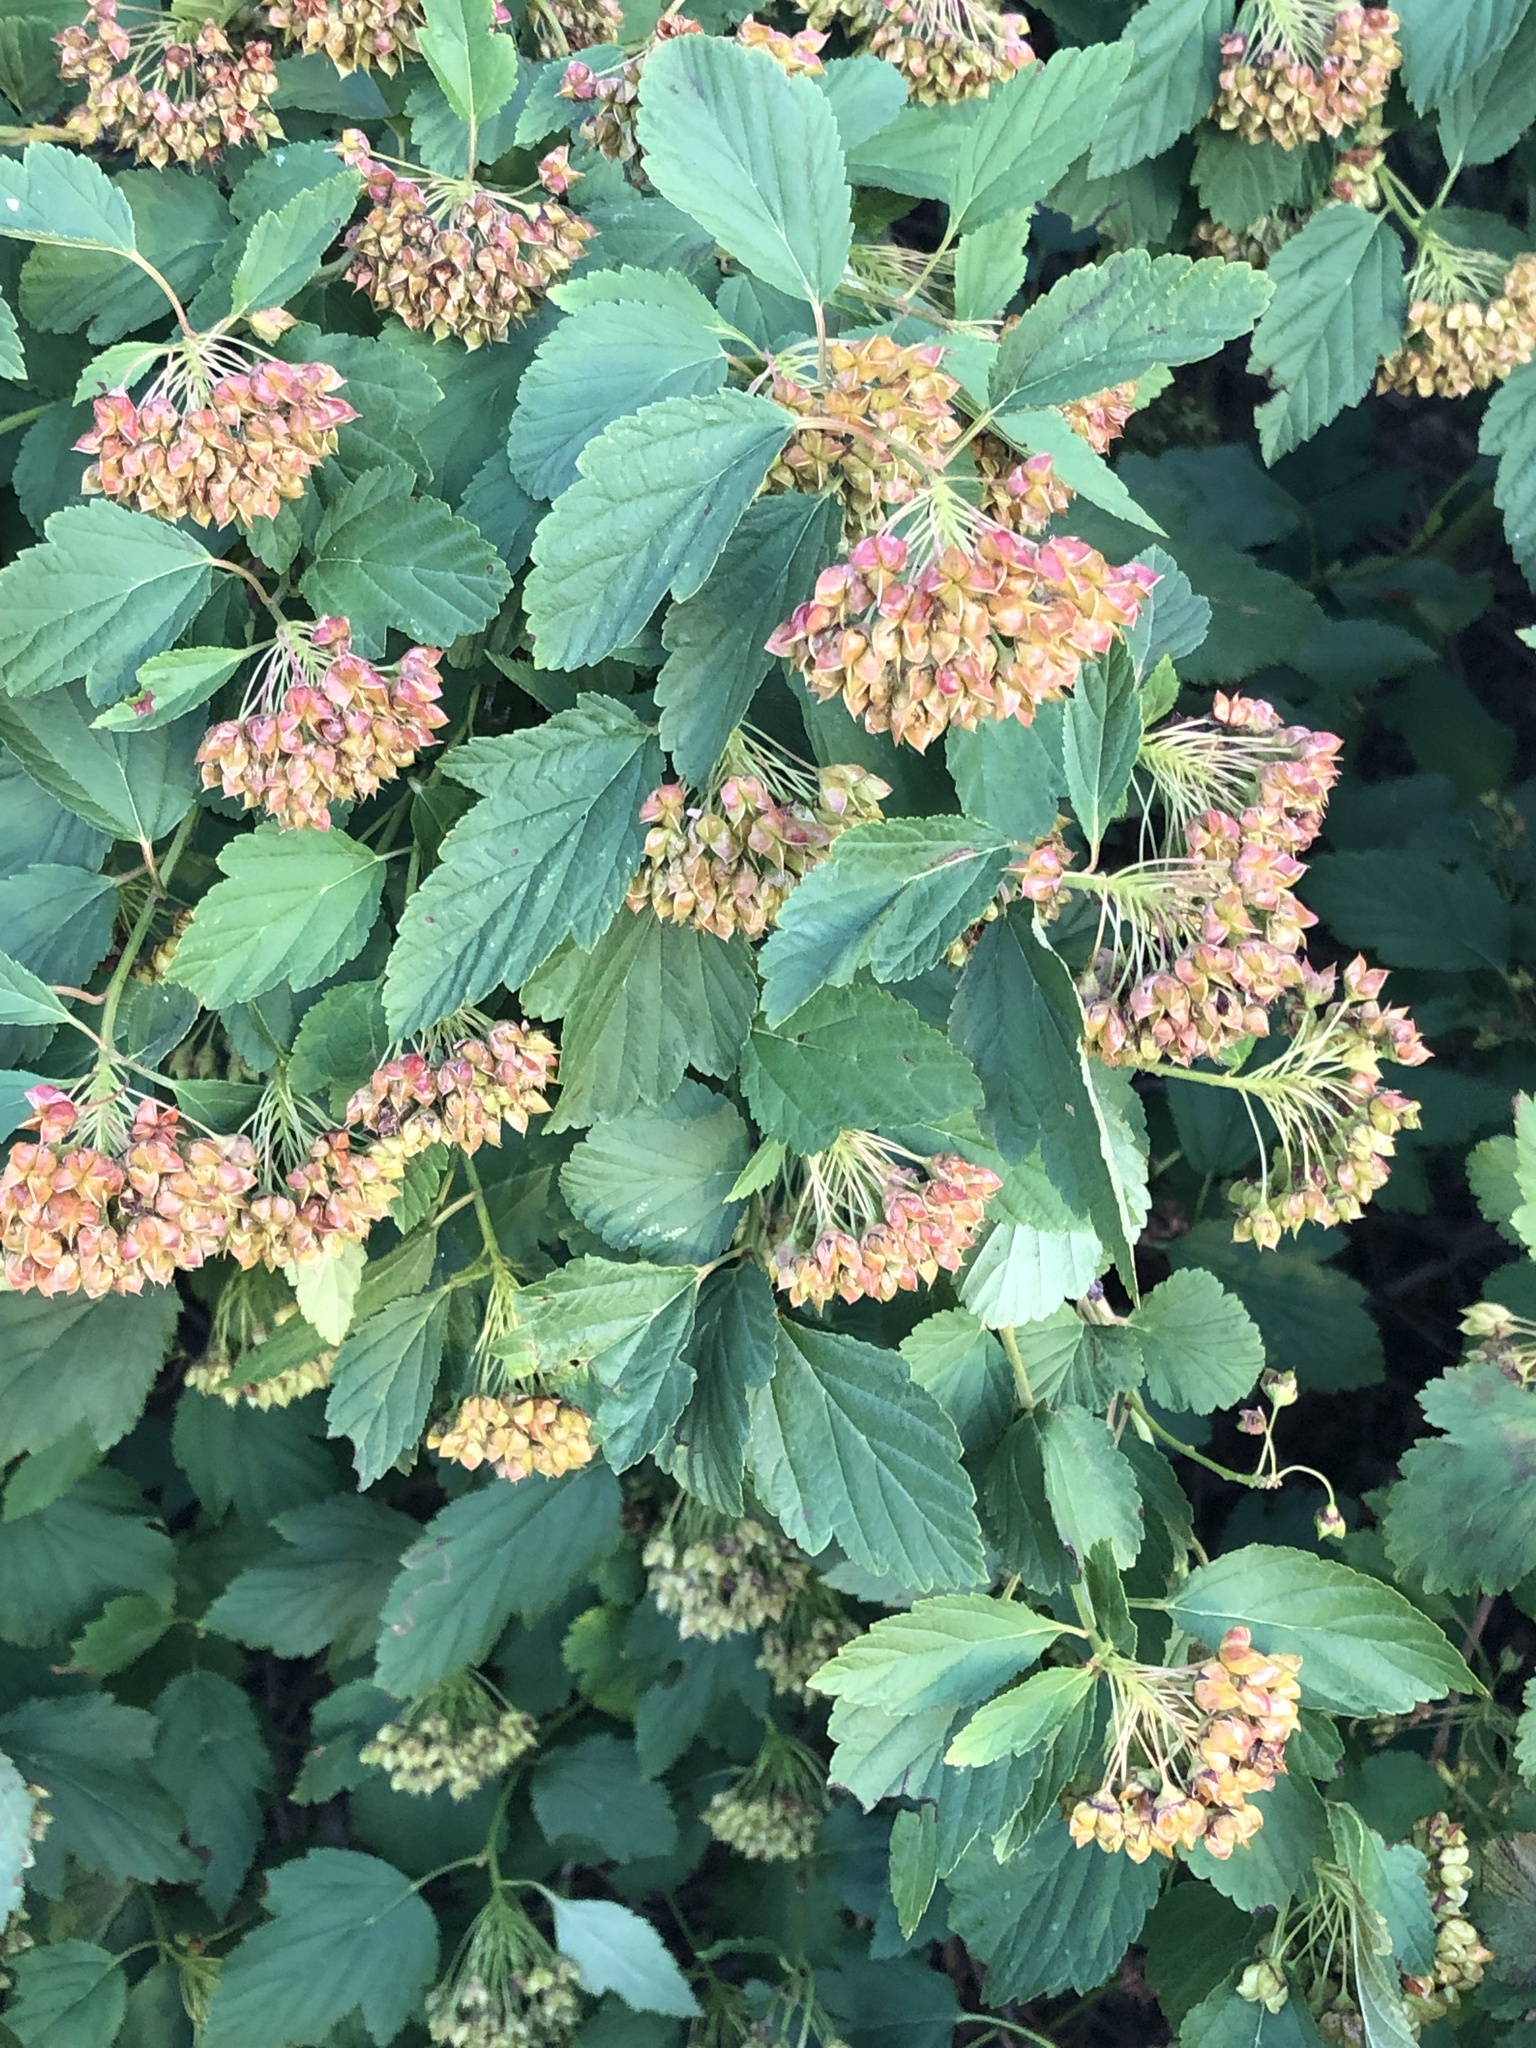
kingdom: Plantae
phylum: Tracheophyta
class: Magnoliopsida
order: Rosales
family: Rosaceae
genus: Physocarpus
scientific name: Physocarpus opulifolius
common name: Ninebark
